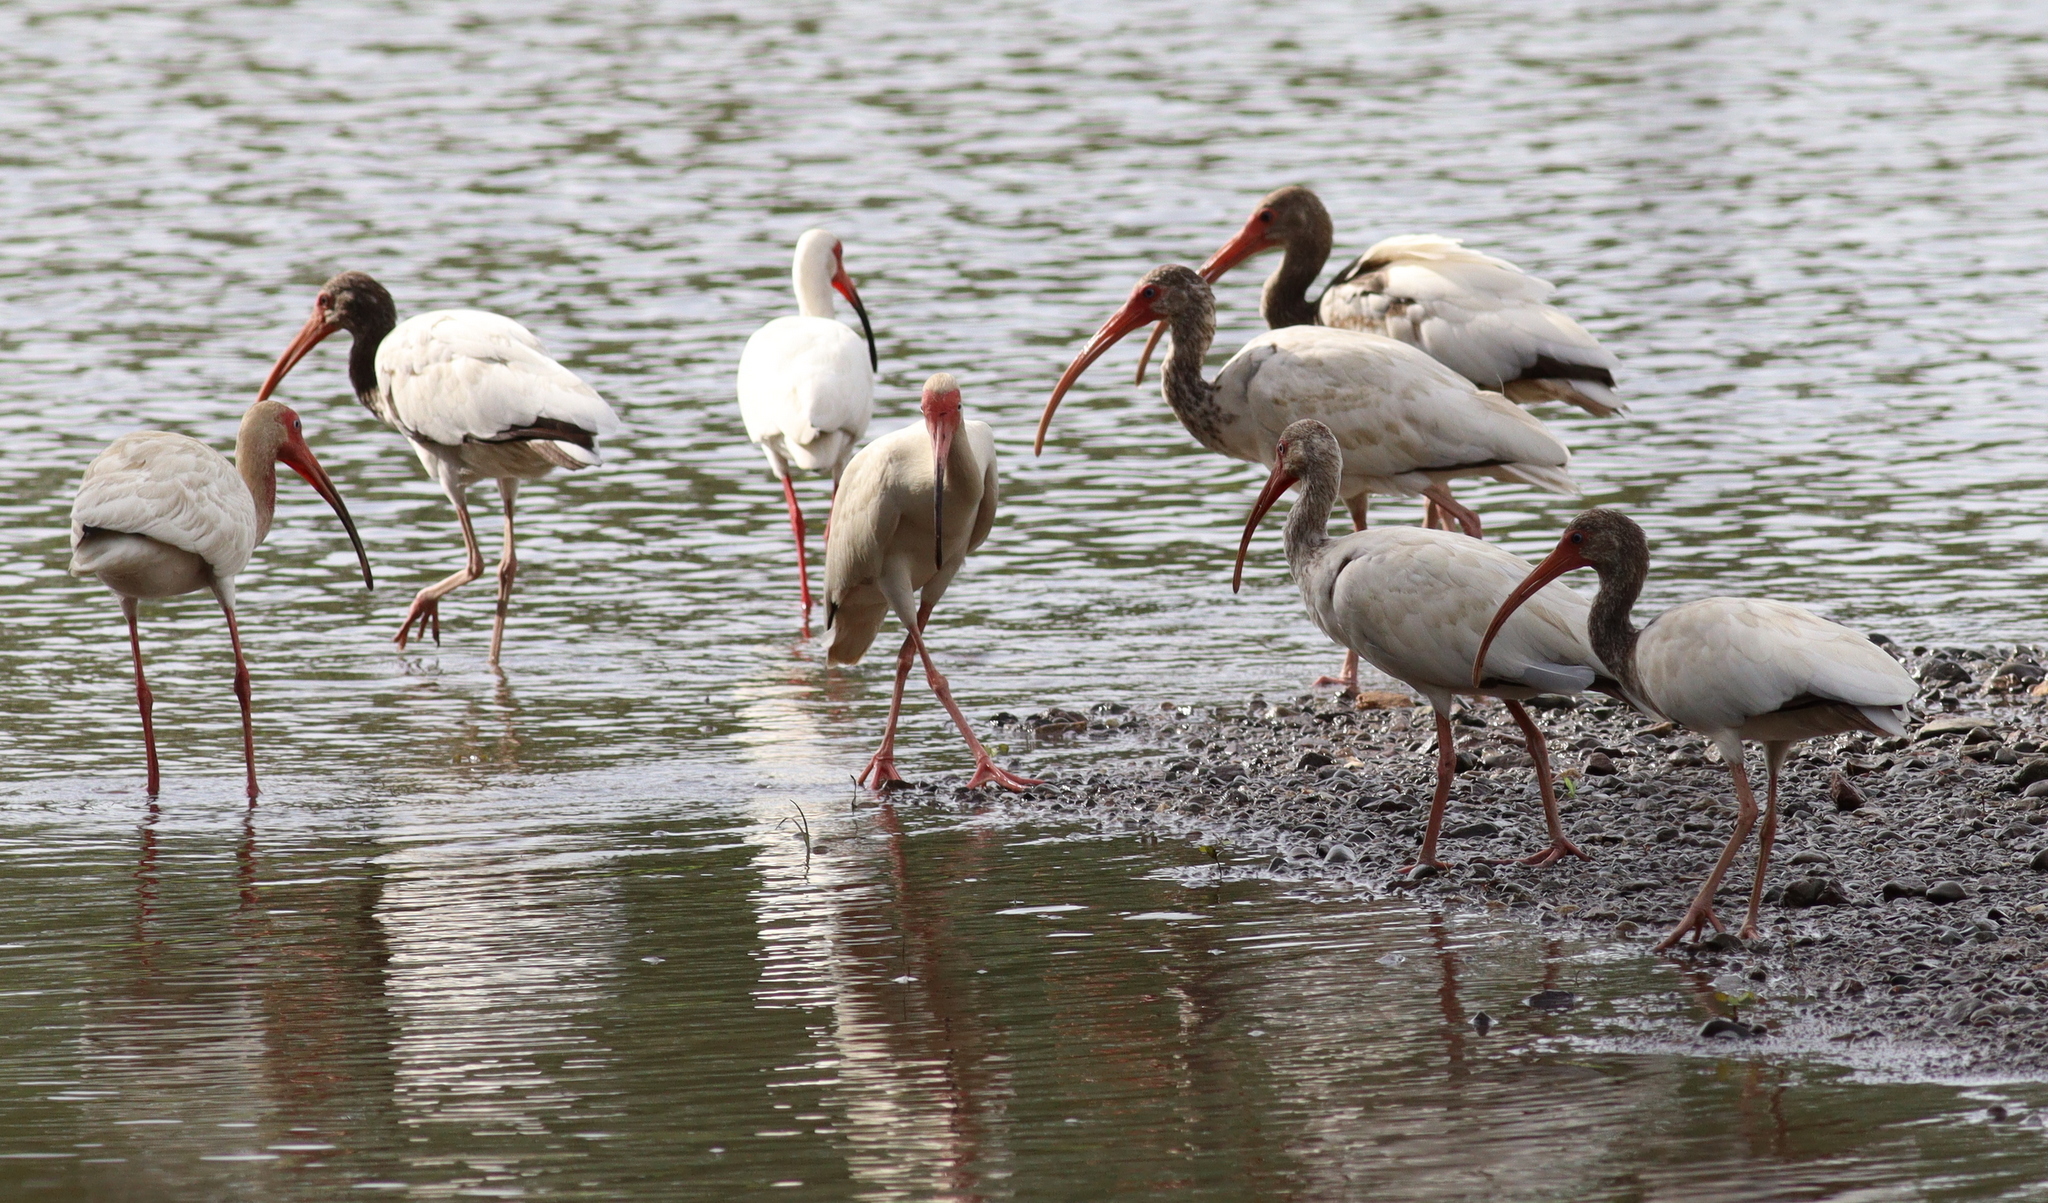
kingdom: Animalia
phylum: Chordata
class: Aves
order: Pelecaniformes
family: Threskiornithidae
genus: Eudocimus
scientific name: Eudocimus albus
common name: White ibis
